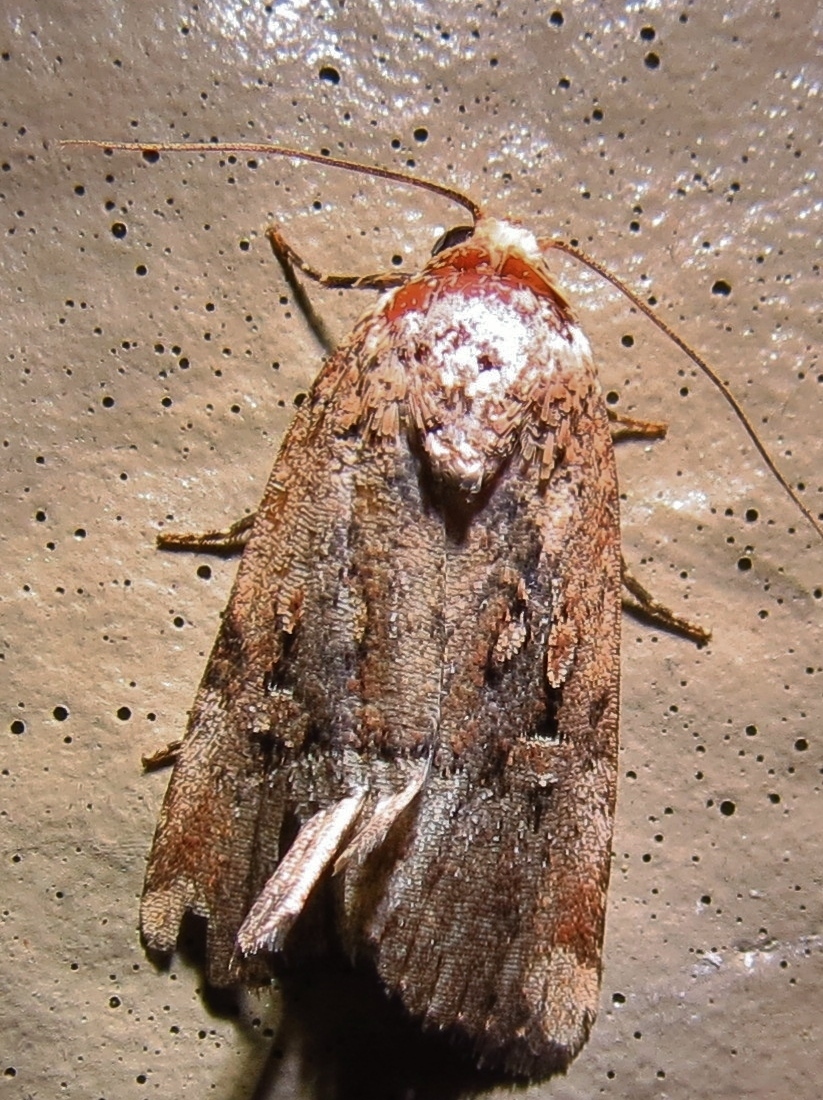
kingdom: Animalia
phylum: Arthropoda
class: Insecta
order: Lepidoptera
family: Noctuidae
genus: Elaphria
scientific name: Elaphria chalcedonia
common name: Chalcedony midget
